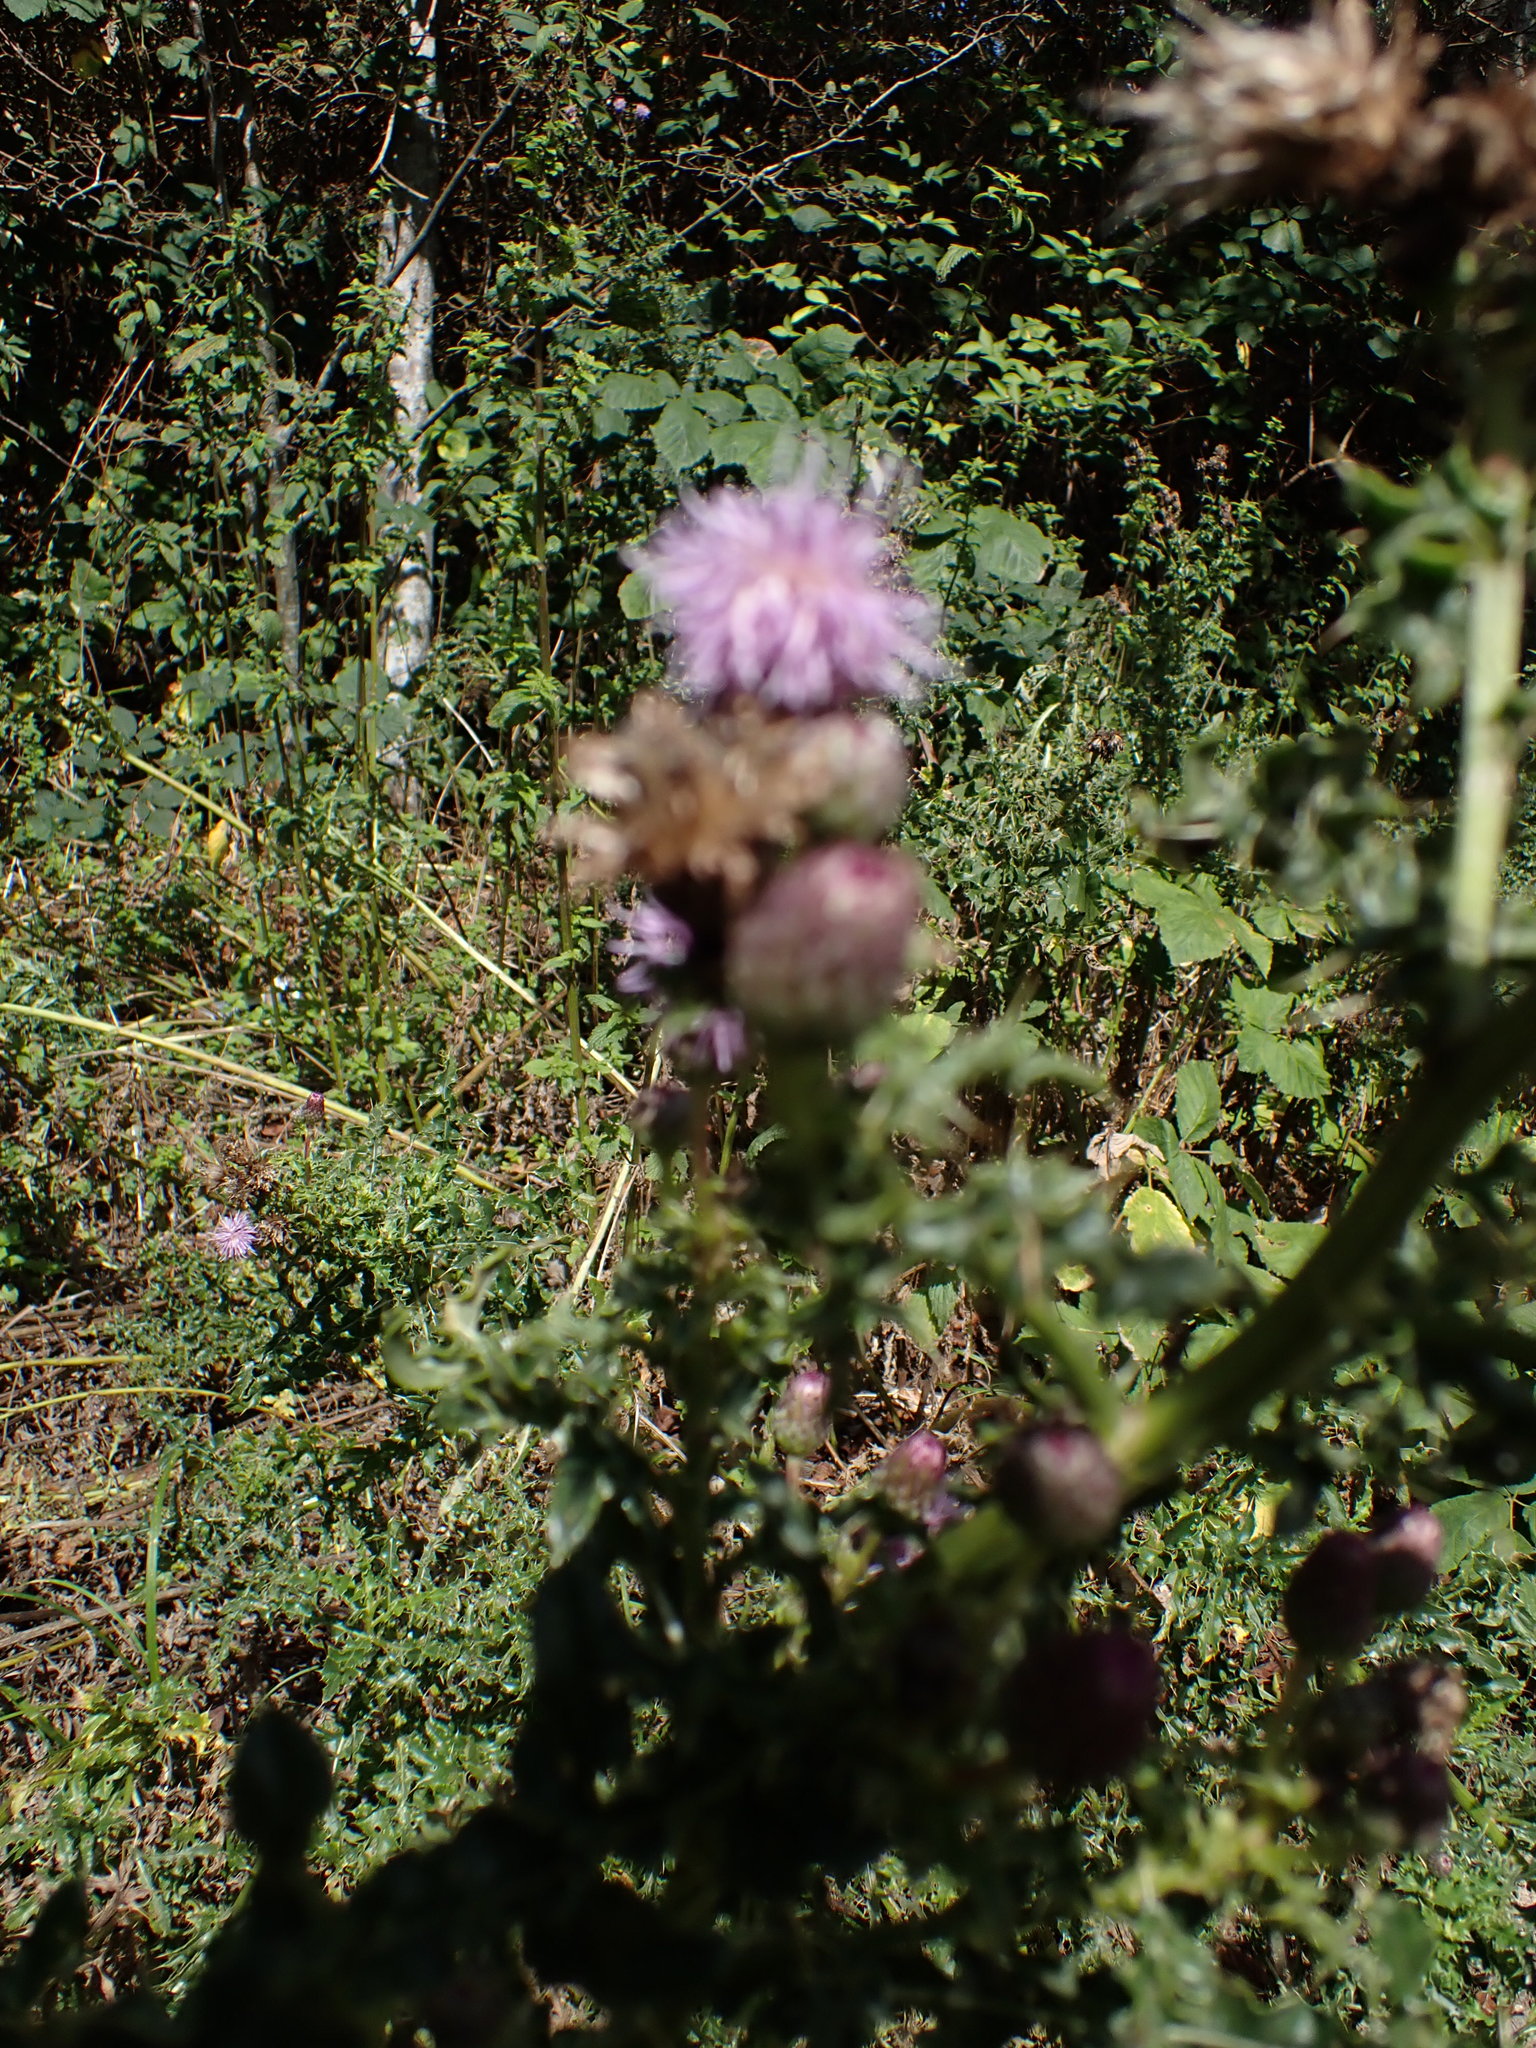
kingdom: Plantae
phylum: Tracheophyta
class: Magnoliopsida
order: Asterales
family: Asteraceae
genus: Cirsium
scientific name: Cirsium arvense
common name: Creeping thistle
